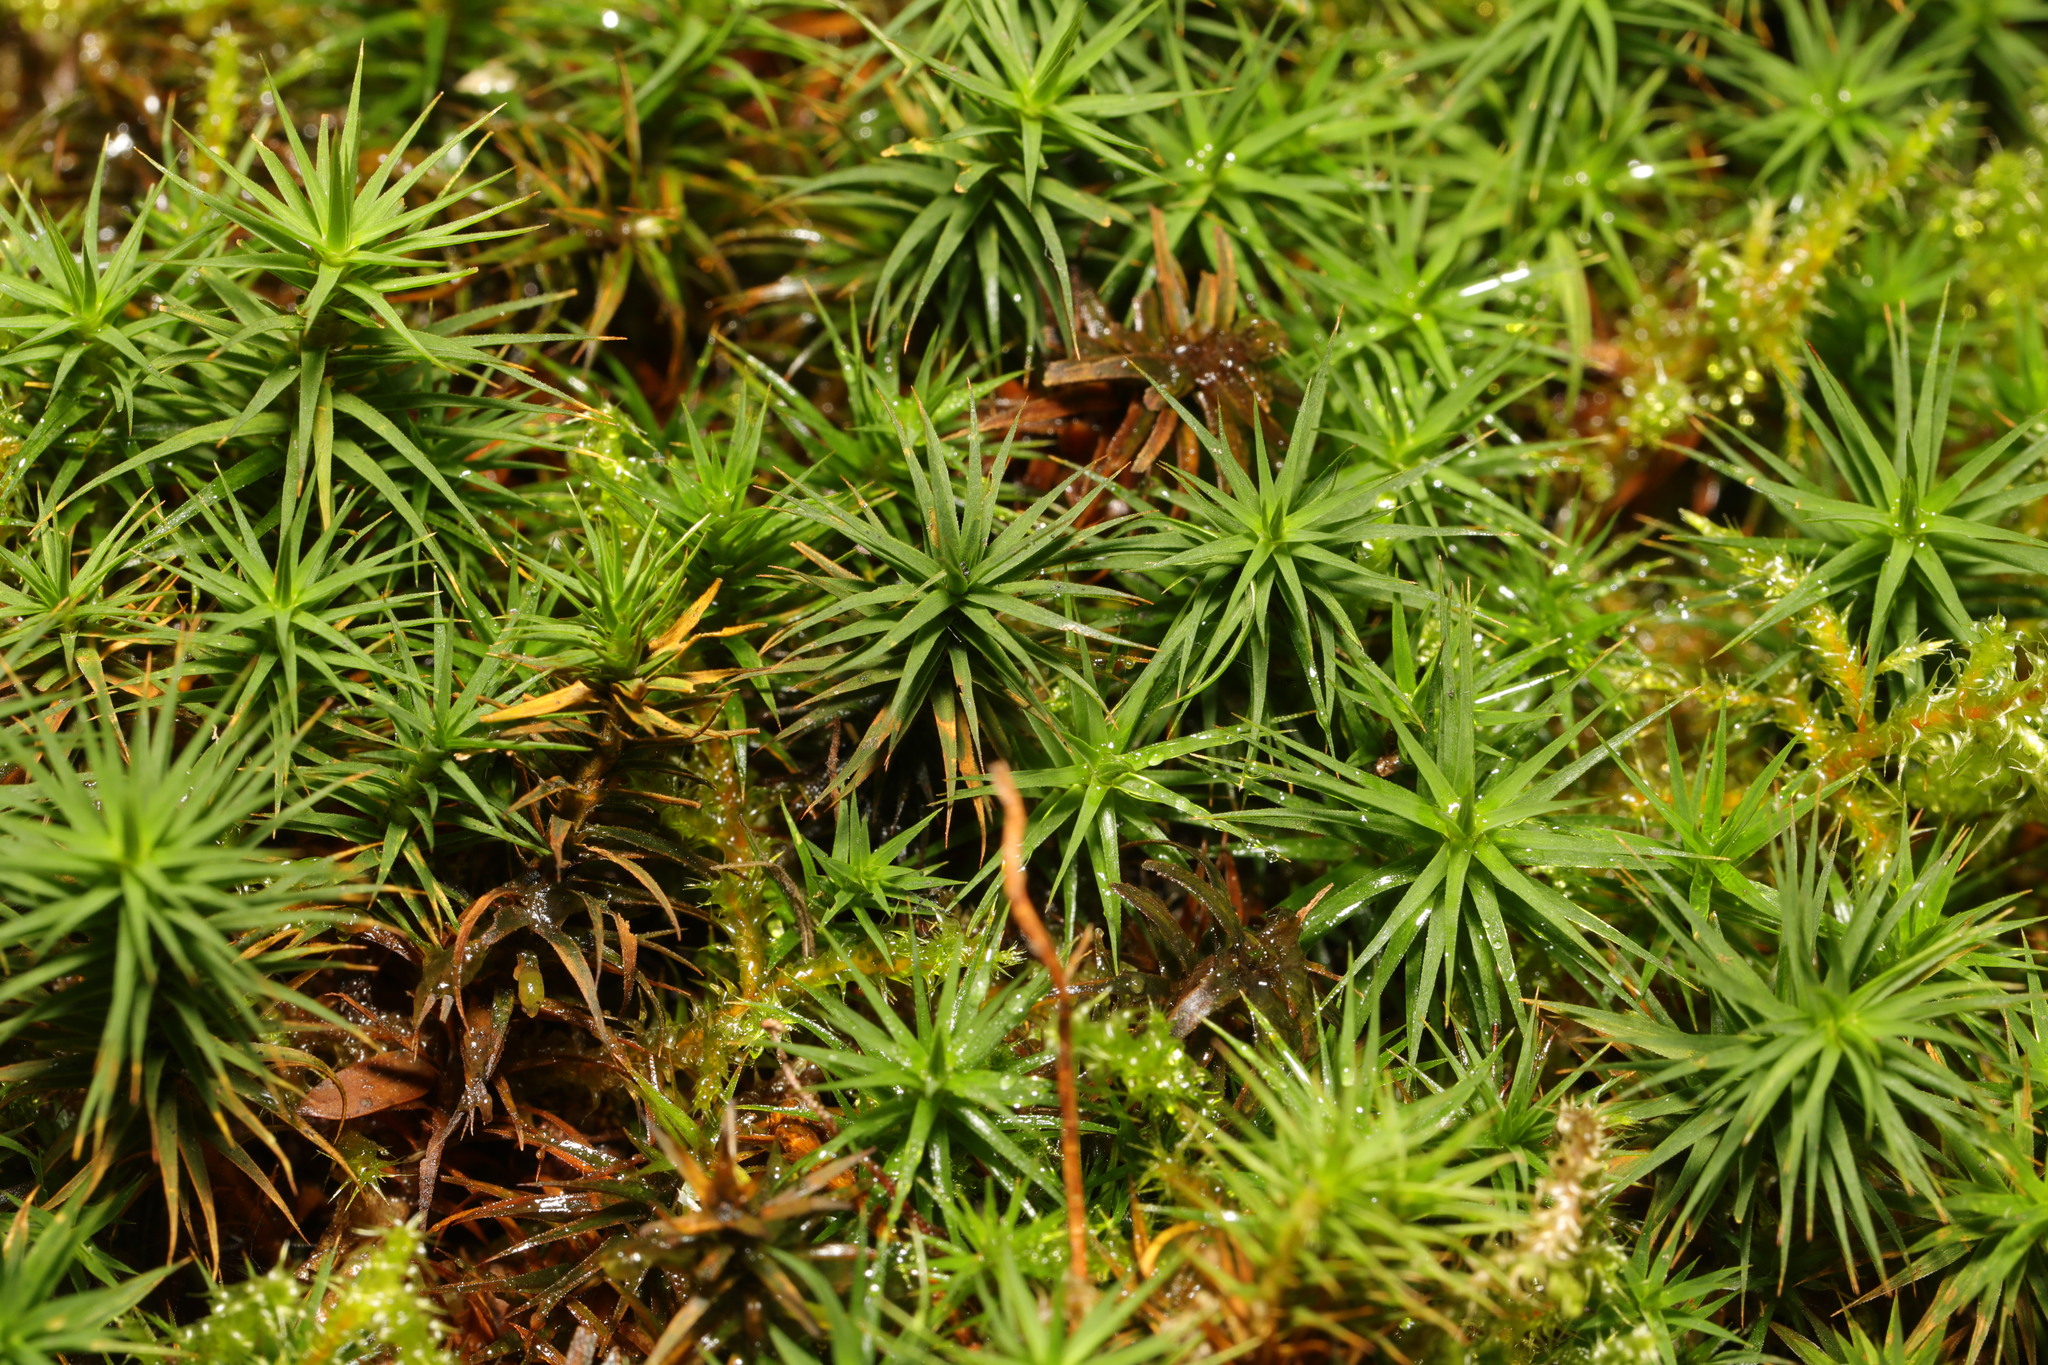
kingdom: Plantae
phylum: Bryophyta
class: Polytrichopsida
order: Polytrichales
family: Polytrichaceae
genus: Polytrichum
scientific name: Polytrichum commune
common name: Common haircap
